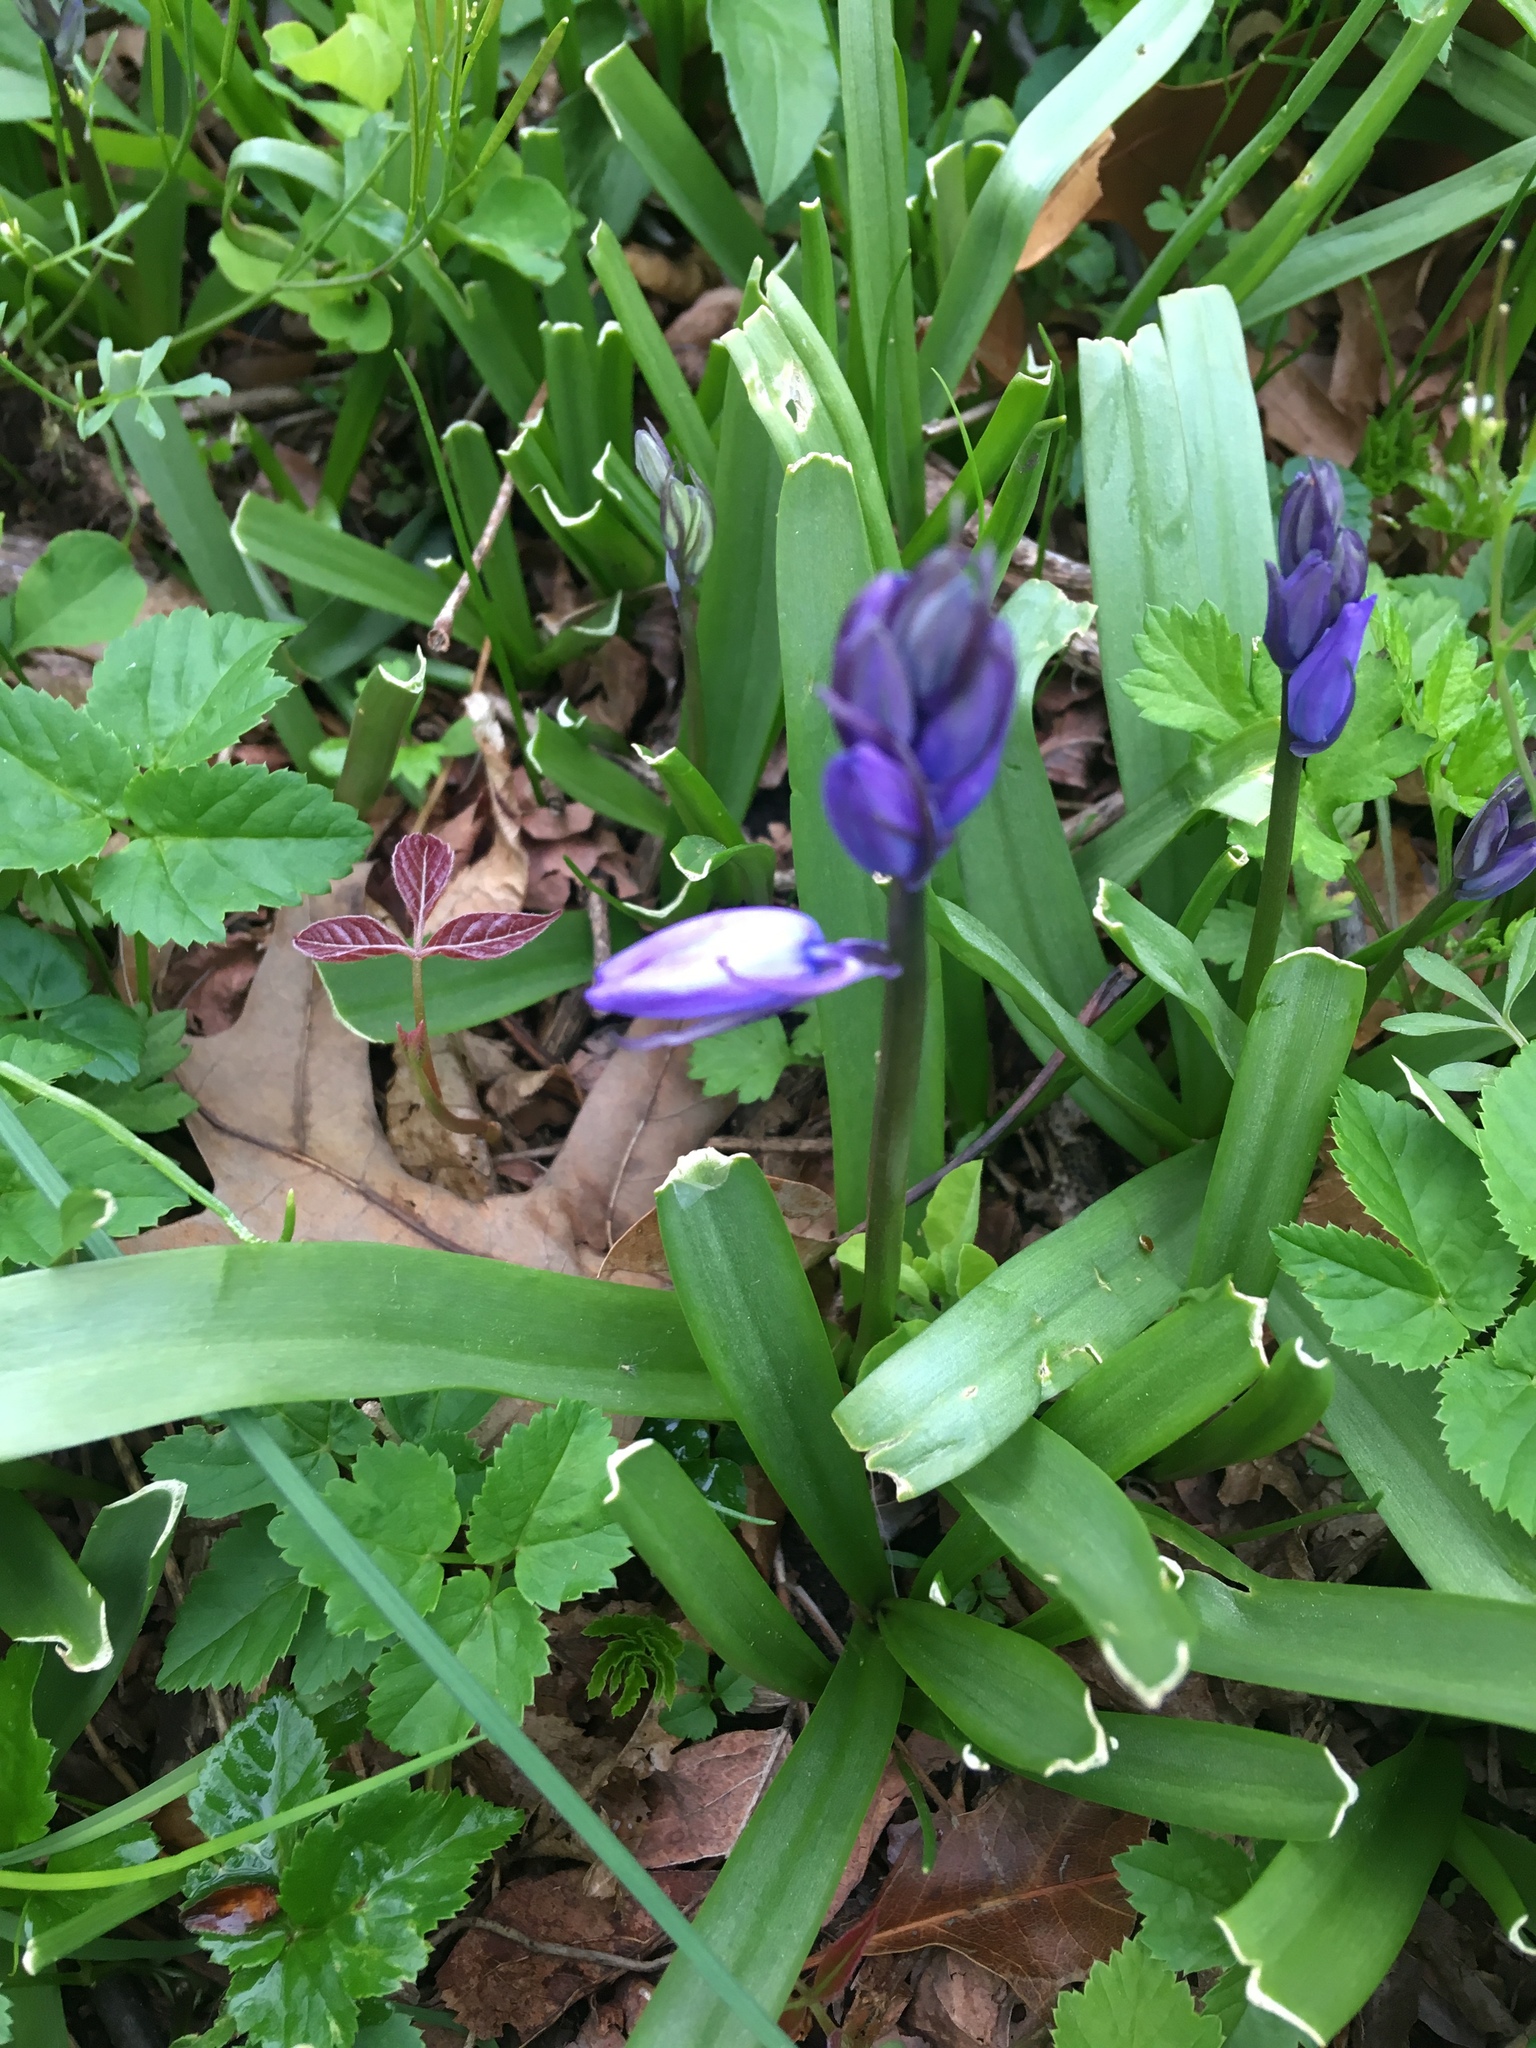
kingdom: Plantae
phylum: Tracheophyta
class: Liliopsida
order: Asparagales
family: Asparagaceae
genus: Hyacinthoides
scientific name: Hyacinthoides non-scripta
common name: Bluebell
